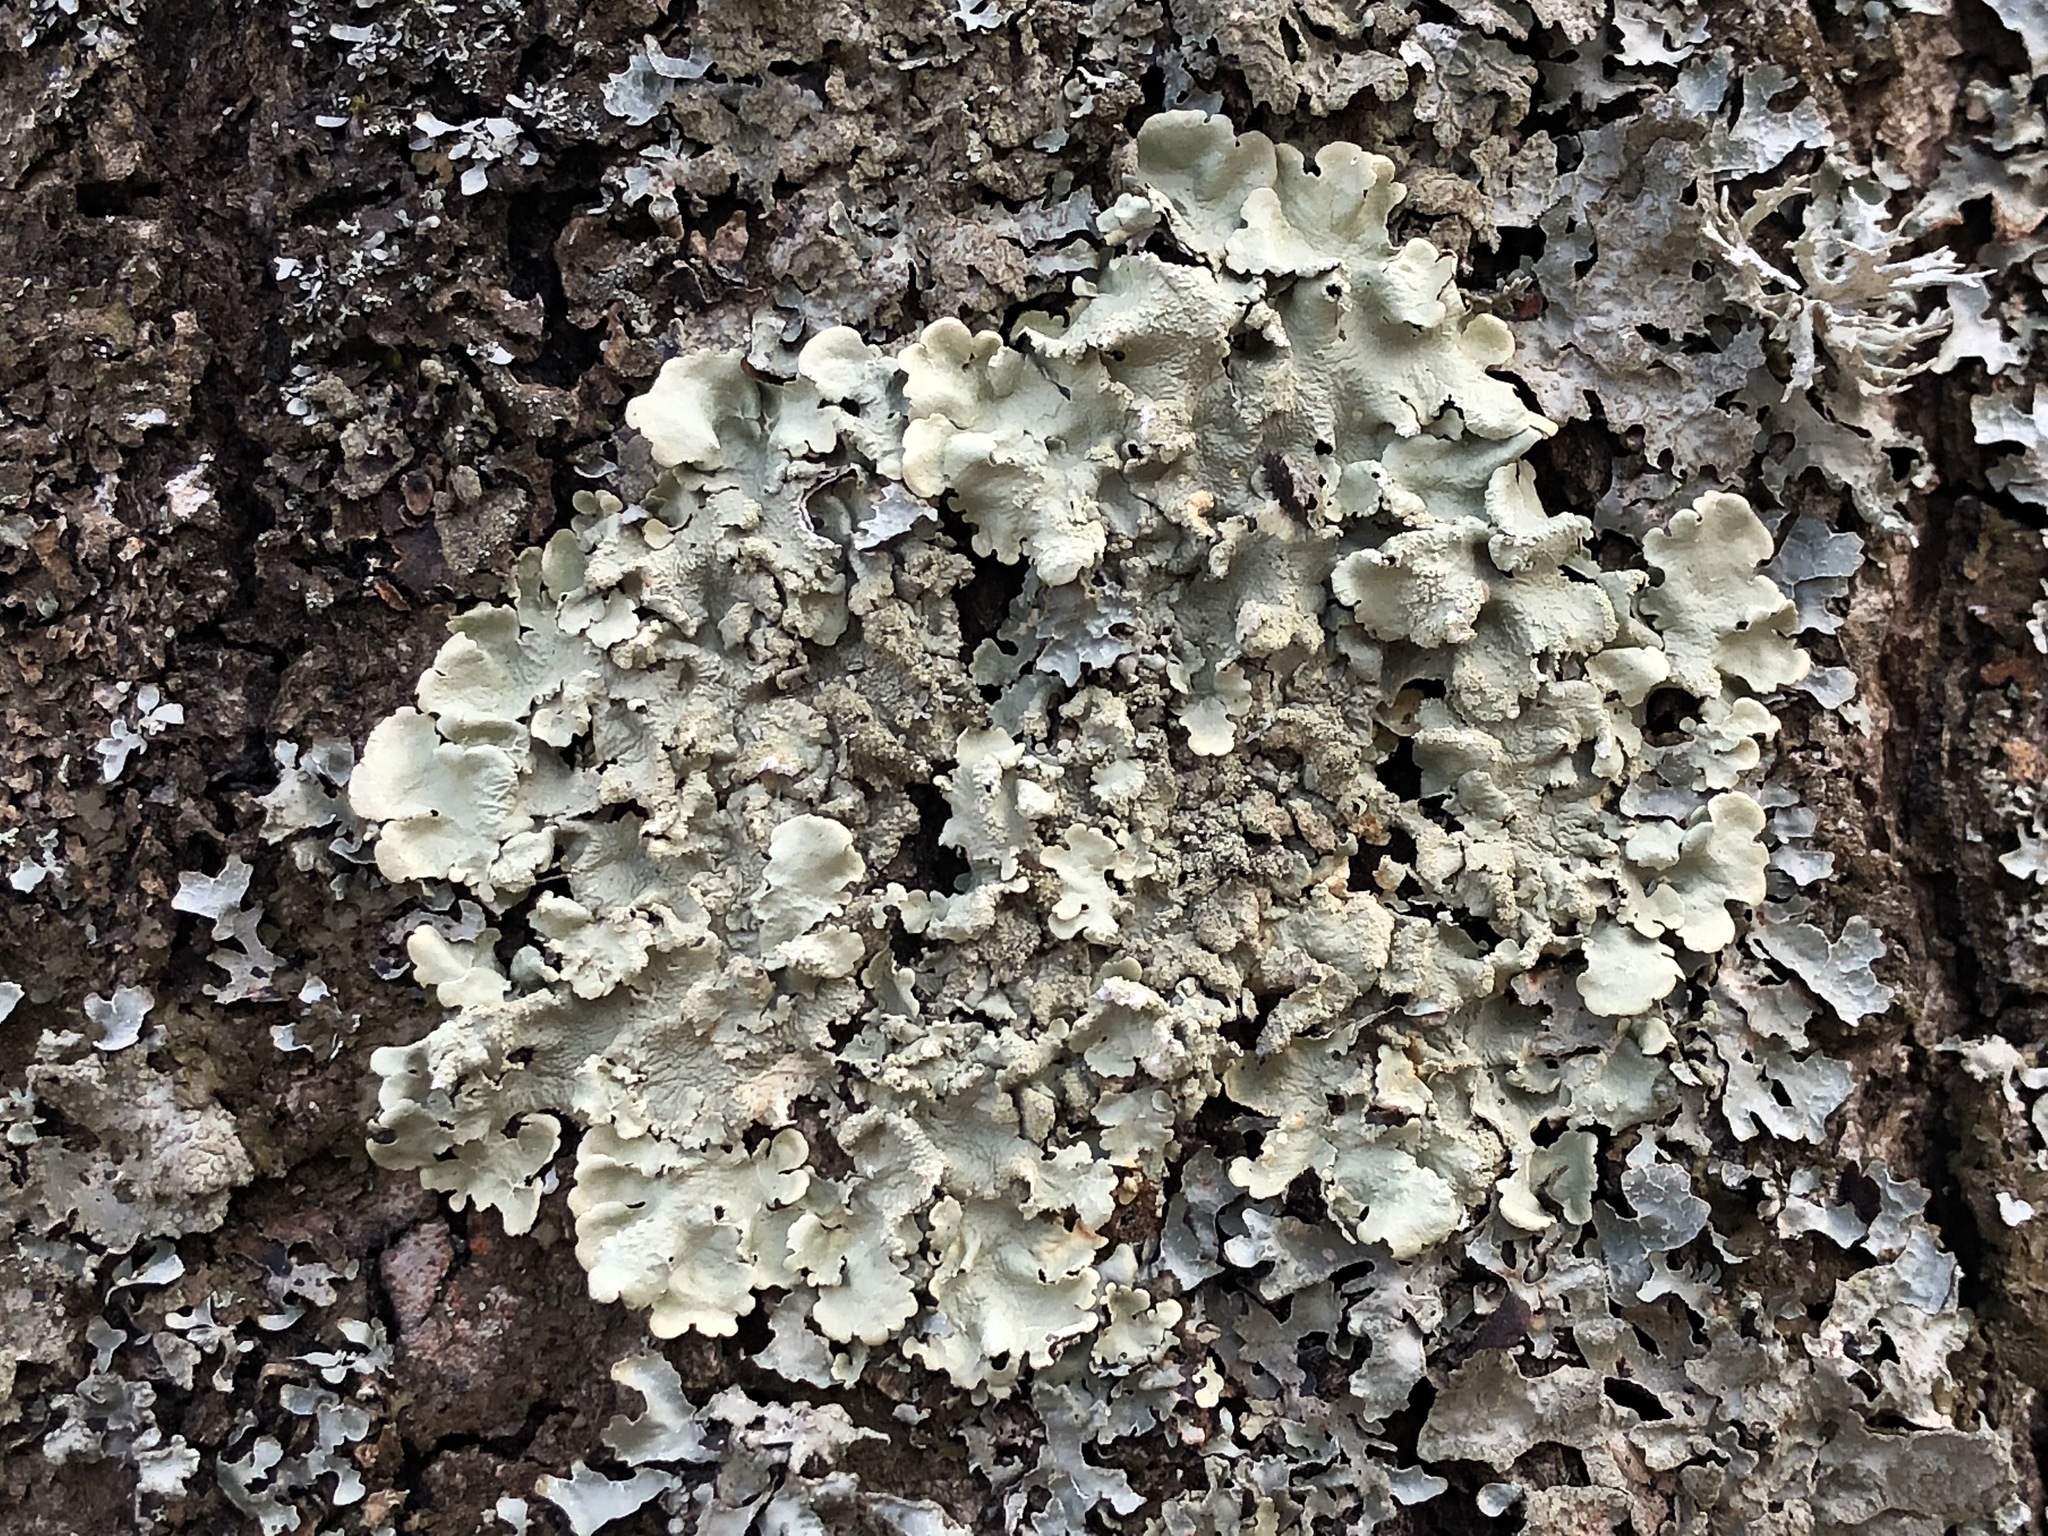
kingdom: Fungi
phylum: Ascomycota
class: Lecanoromycetes
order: Lecanorales
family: Parmeliaceae
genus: Flavoparmelia
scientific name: Flavoparmelia caperata
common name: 40-mile per hour lichen
